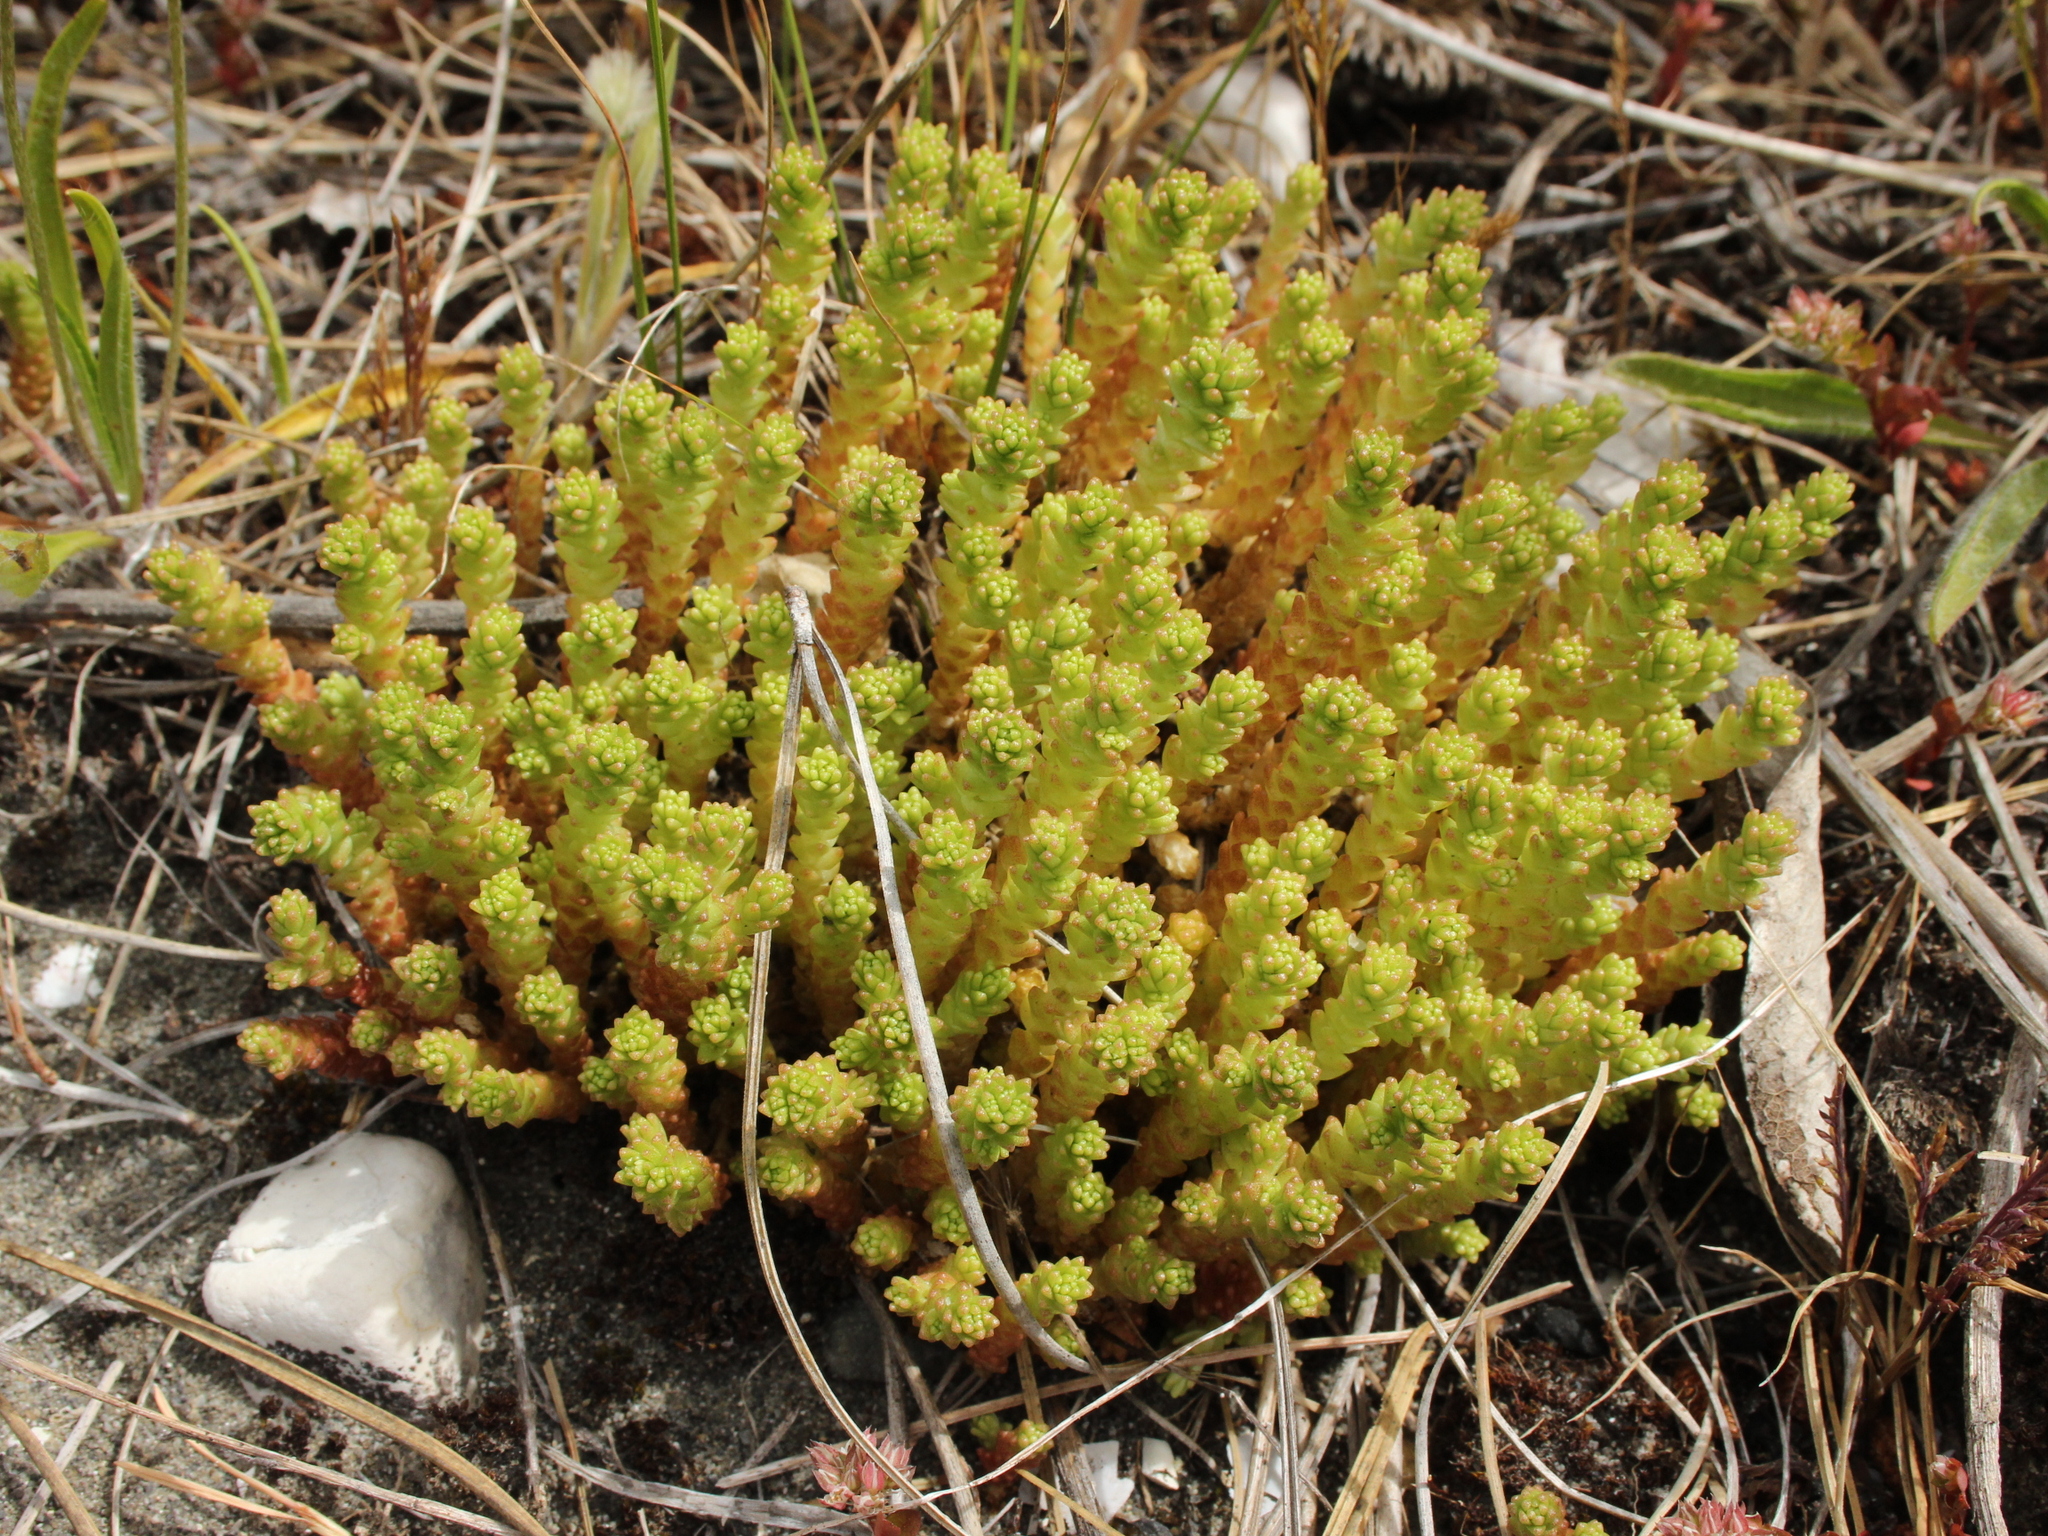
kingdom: Plantae
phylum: Tracheophyta
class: Magnoliopsida
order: Saxifragales
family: Crassulaceae
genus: Sedum
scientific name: Sedum acre
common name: Biting stonecrop
